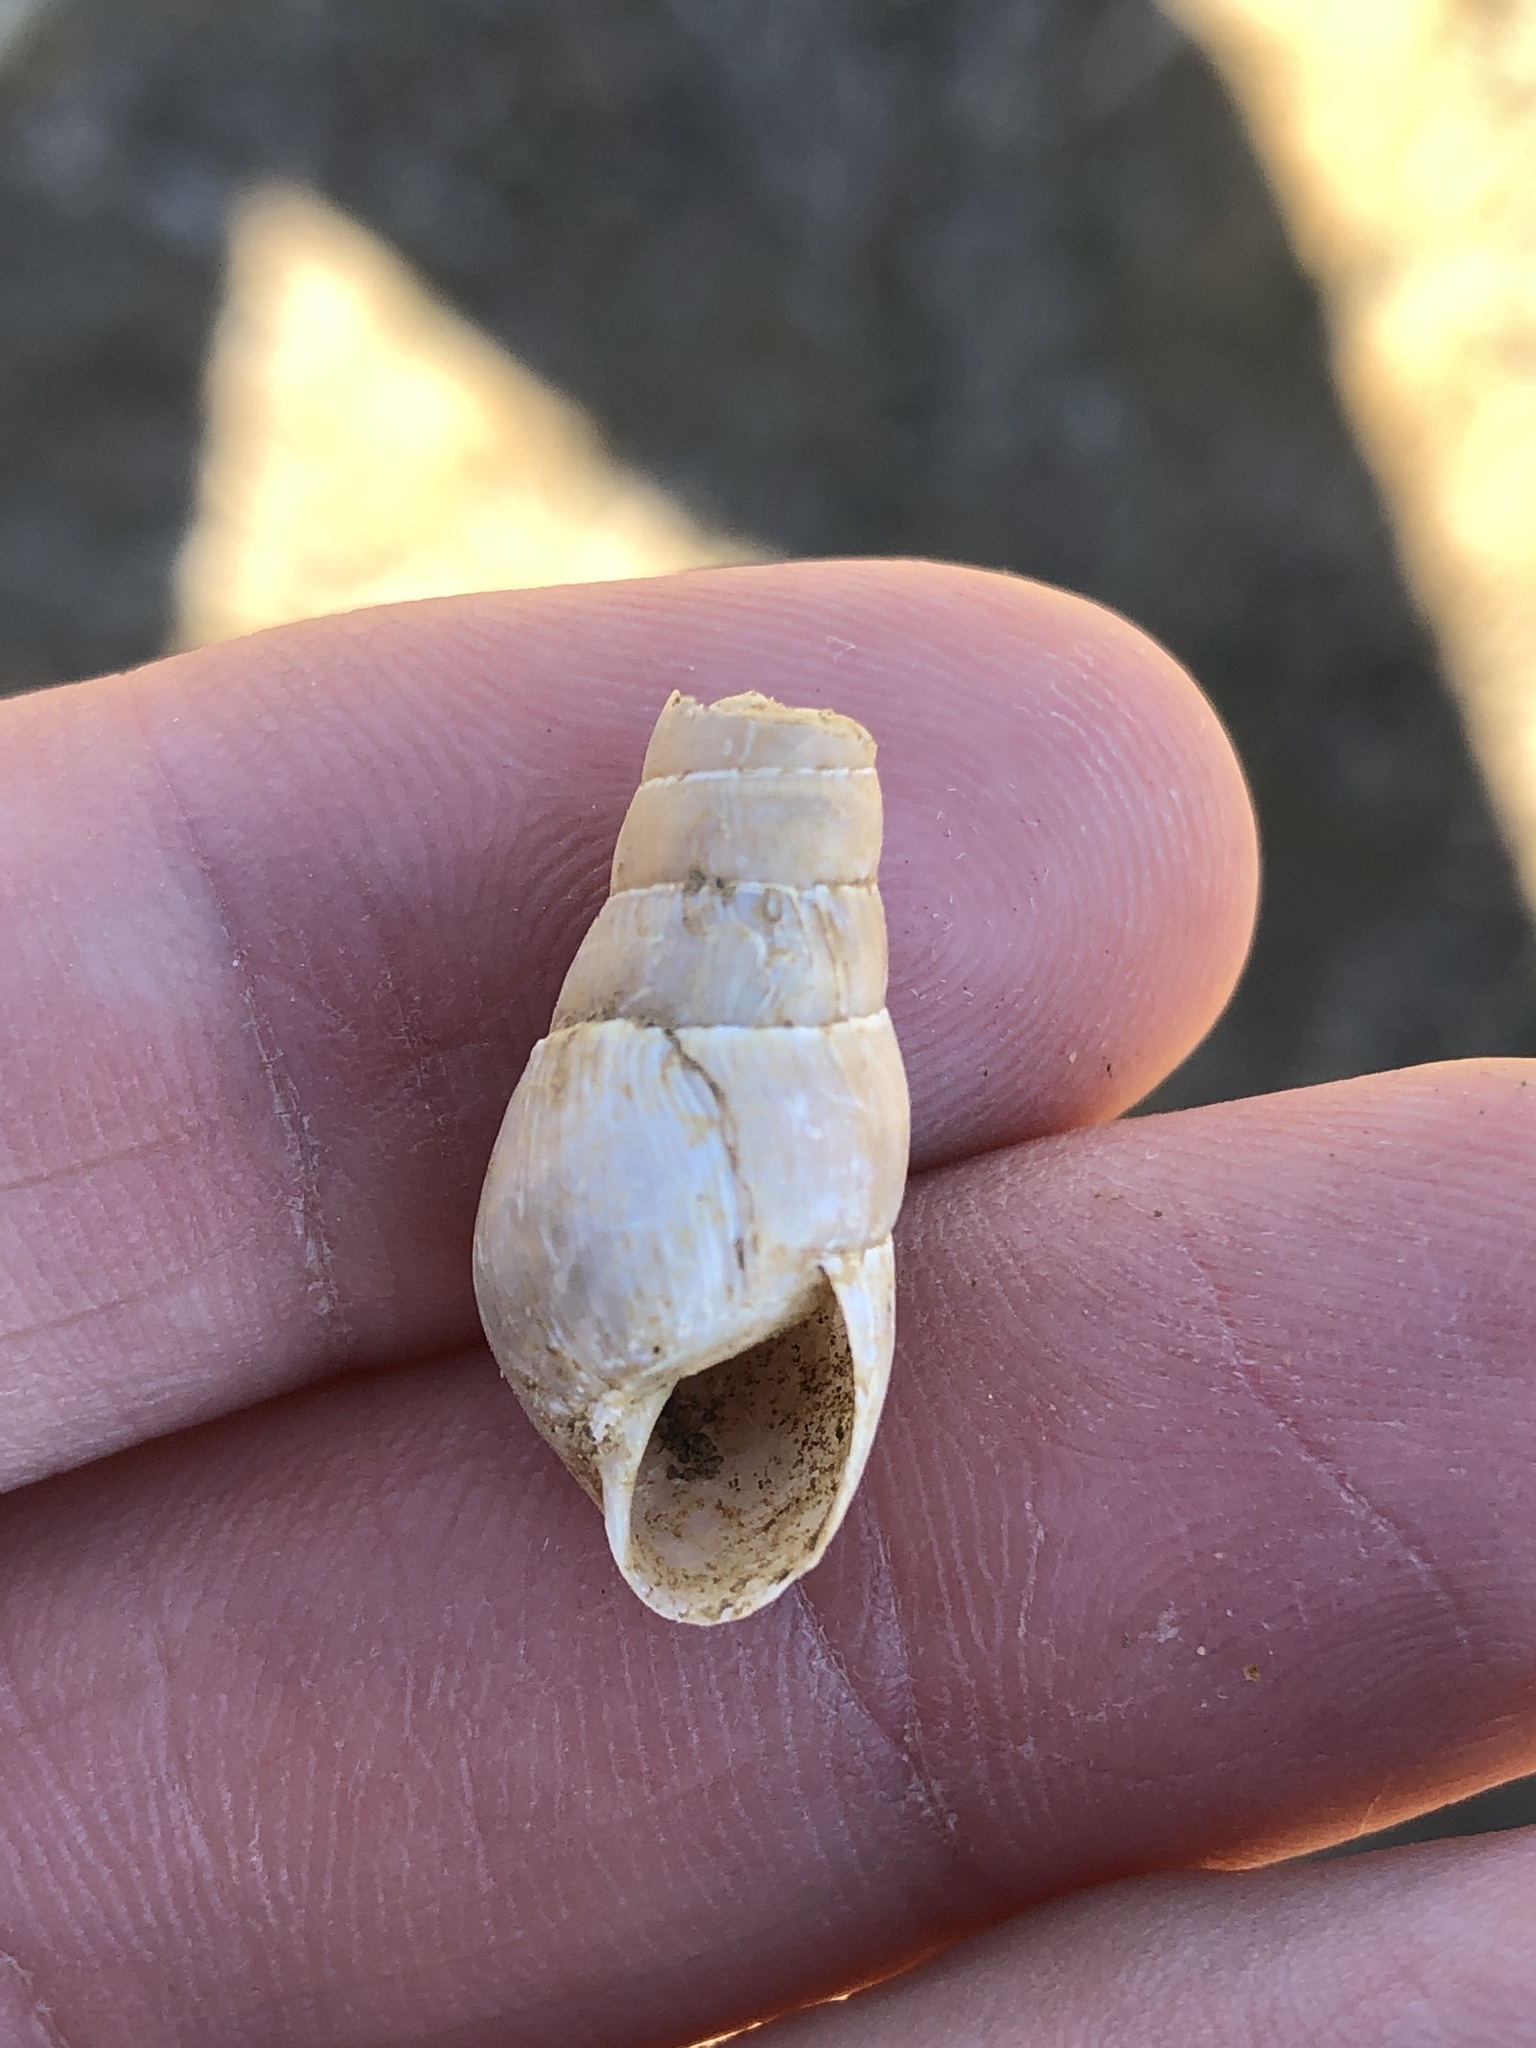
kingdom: Animalia
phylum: Mollusca
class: Gastropoda
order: Stylommatophora
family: Achatinidae
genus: Rumina
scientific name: Rumina decollata
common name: Decollate snail
